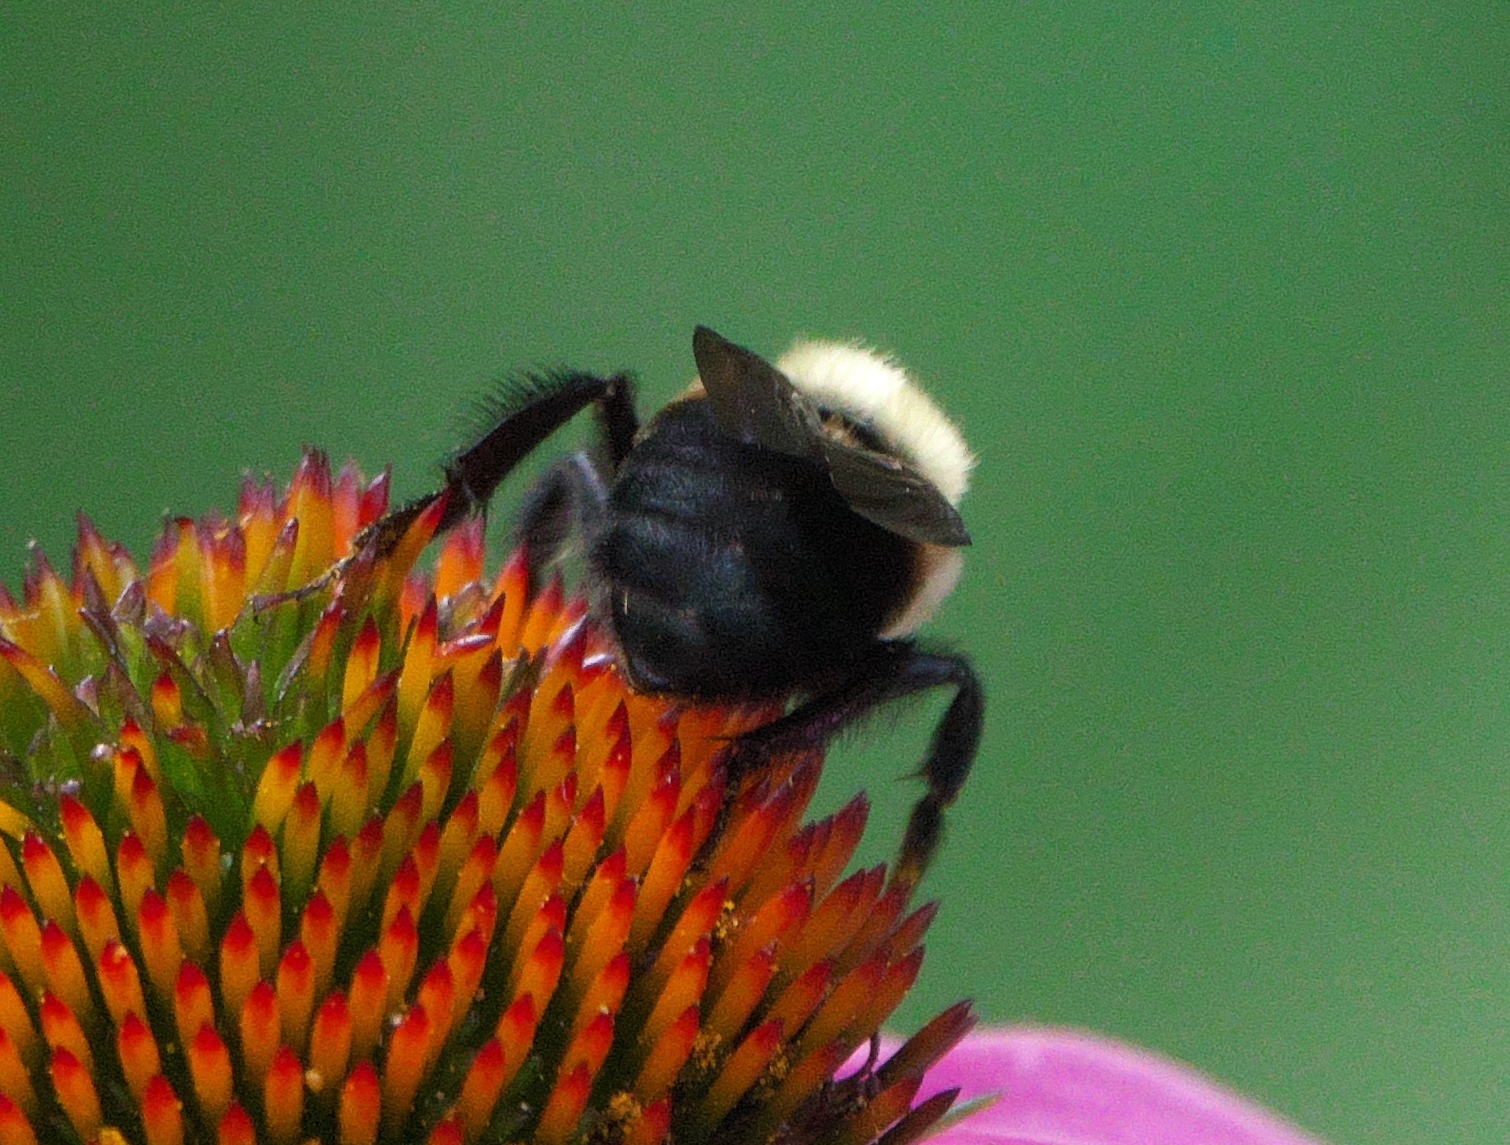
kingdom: Animalia
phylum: Arthropoda
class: Insecta
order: Hymenoptera
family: Apidae
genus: Bombus
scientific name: Bombus griseocollis
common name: Brown-belted bumble bee
